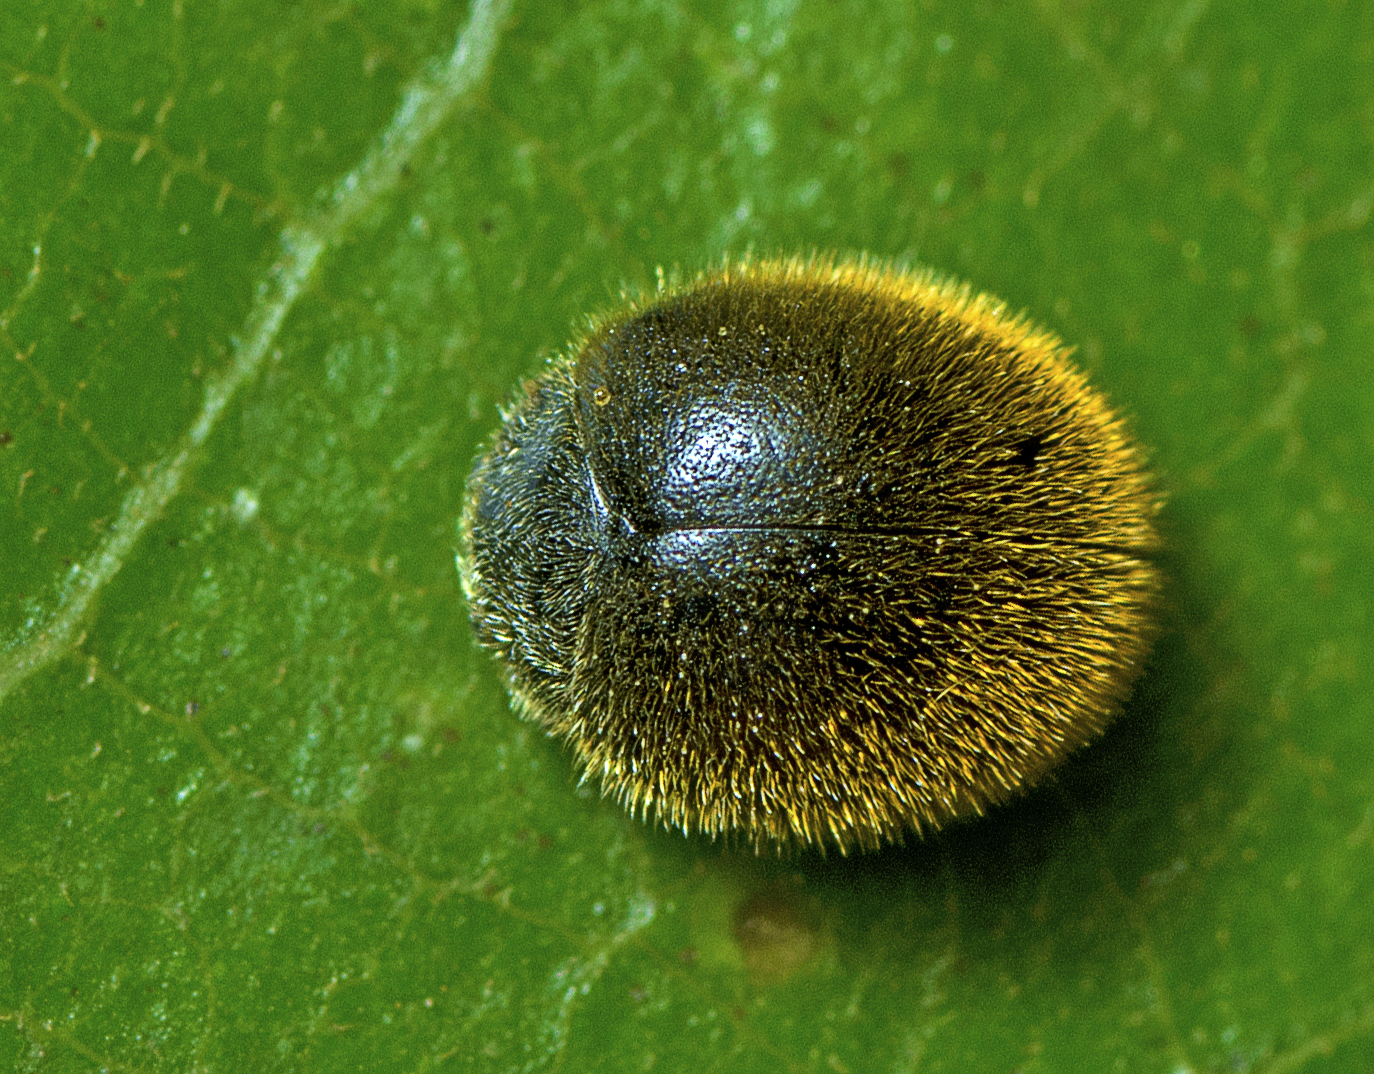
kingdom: Animalia
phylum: Arthropoda
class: Insecta
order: Coleoptera
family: Coccinellidae
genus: Erithionyx
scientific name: Erithionyx
